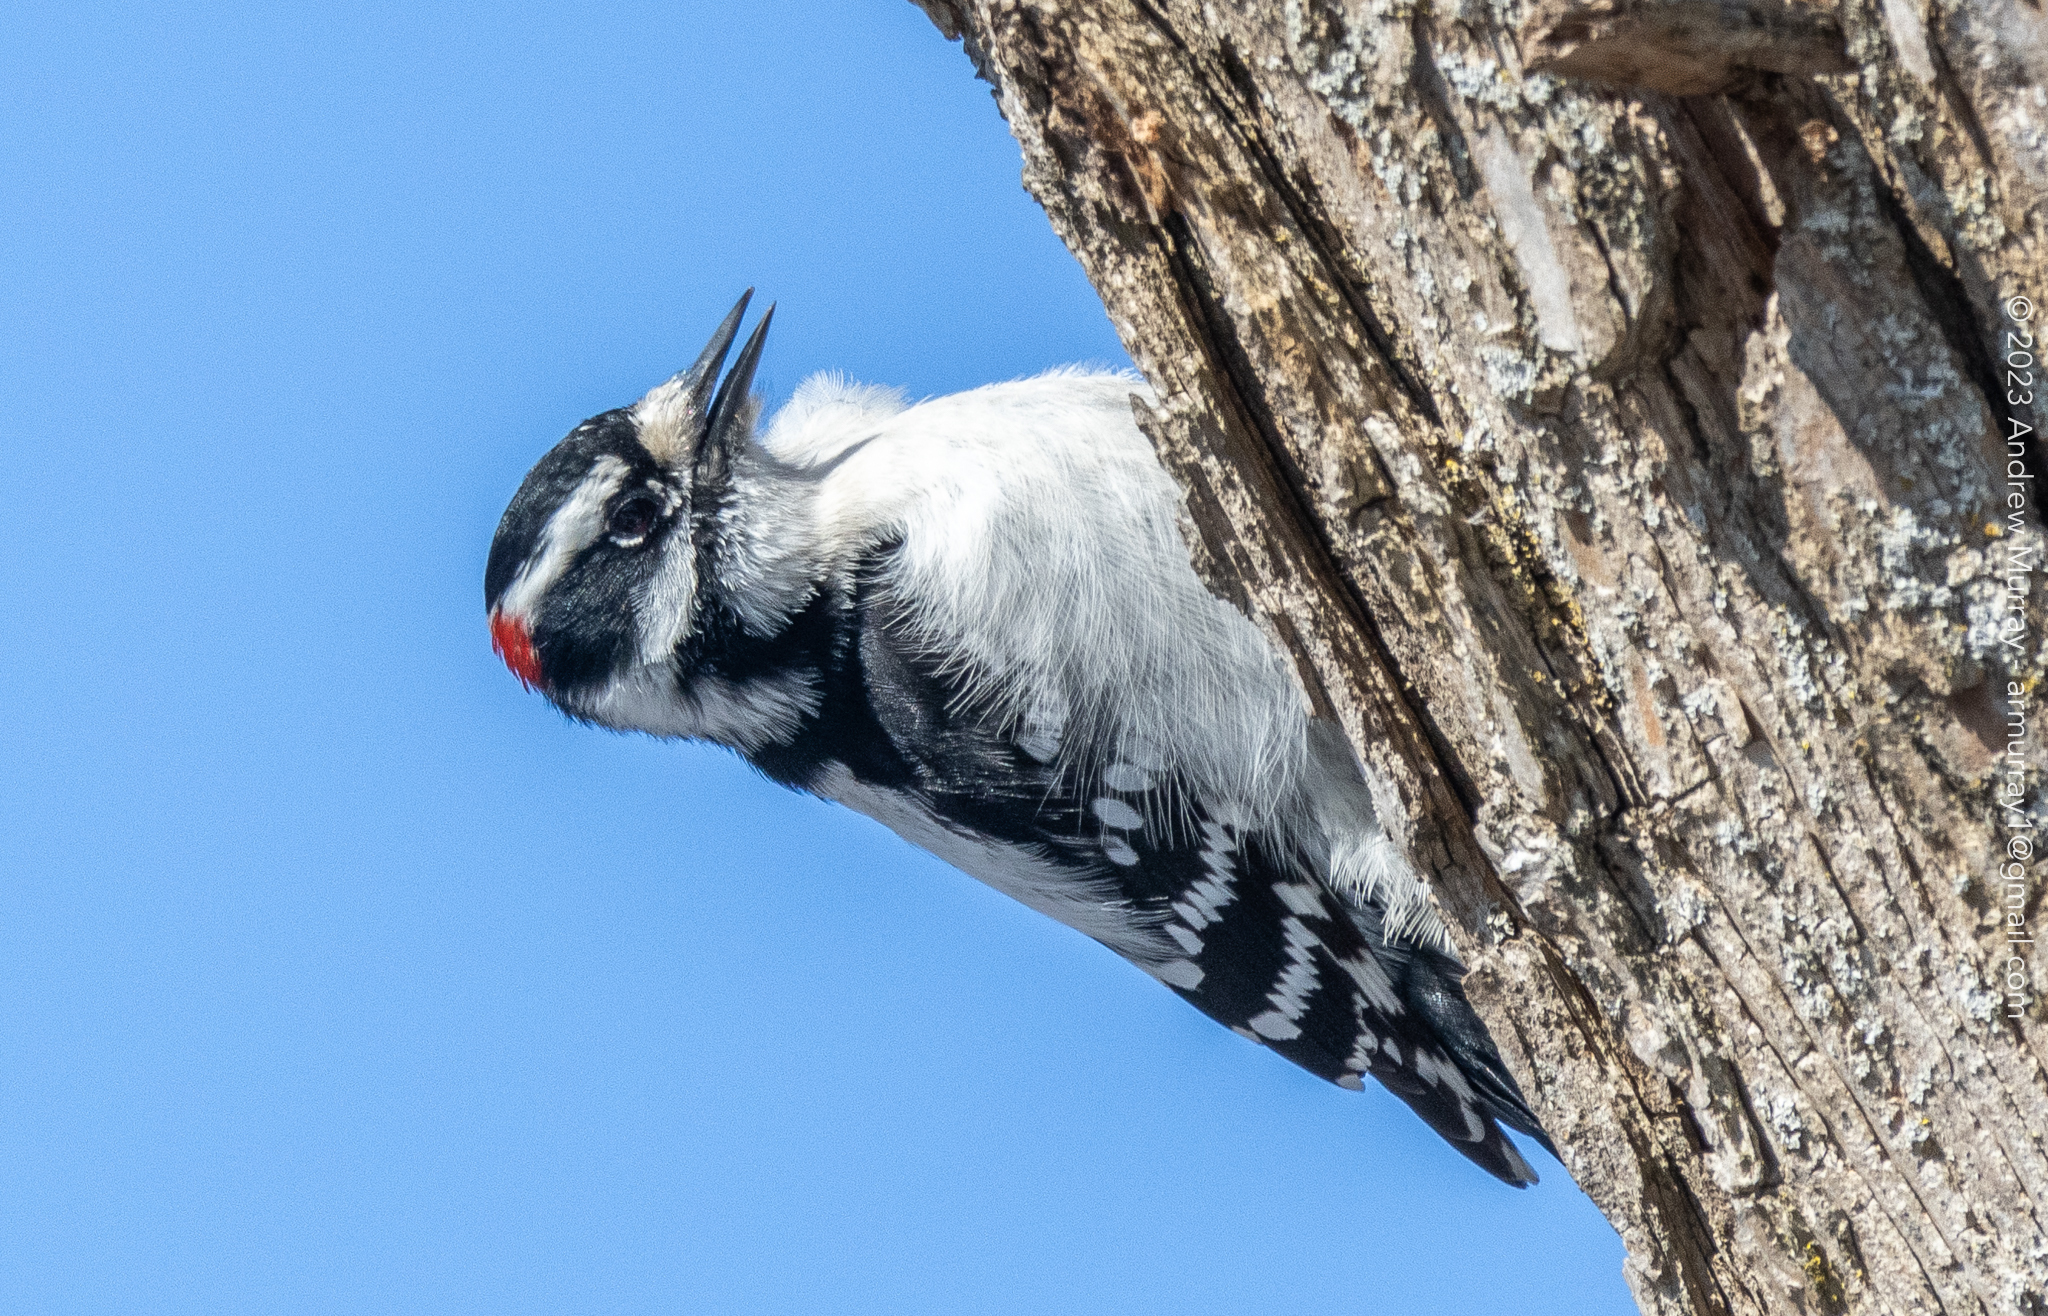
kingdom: Animalia
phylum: Chordata
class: Aves
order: Piciformes
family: Picidae
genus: Dryobates
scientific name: Dryobates pubescens
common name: Downy woodpecker
